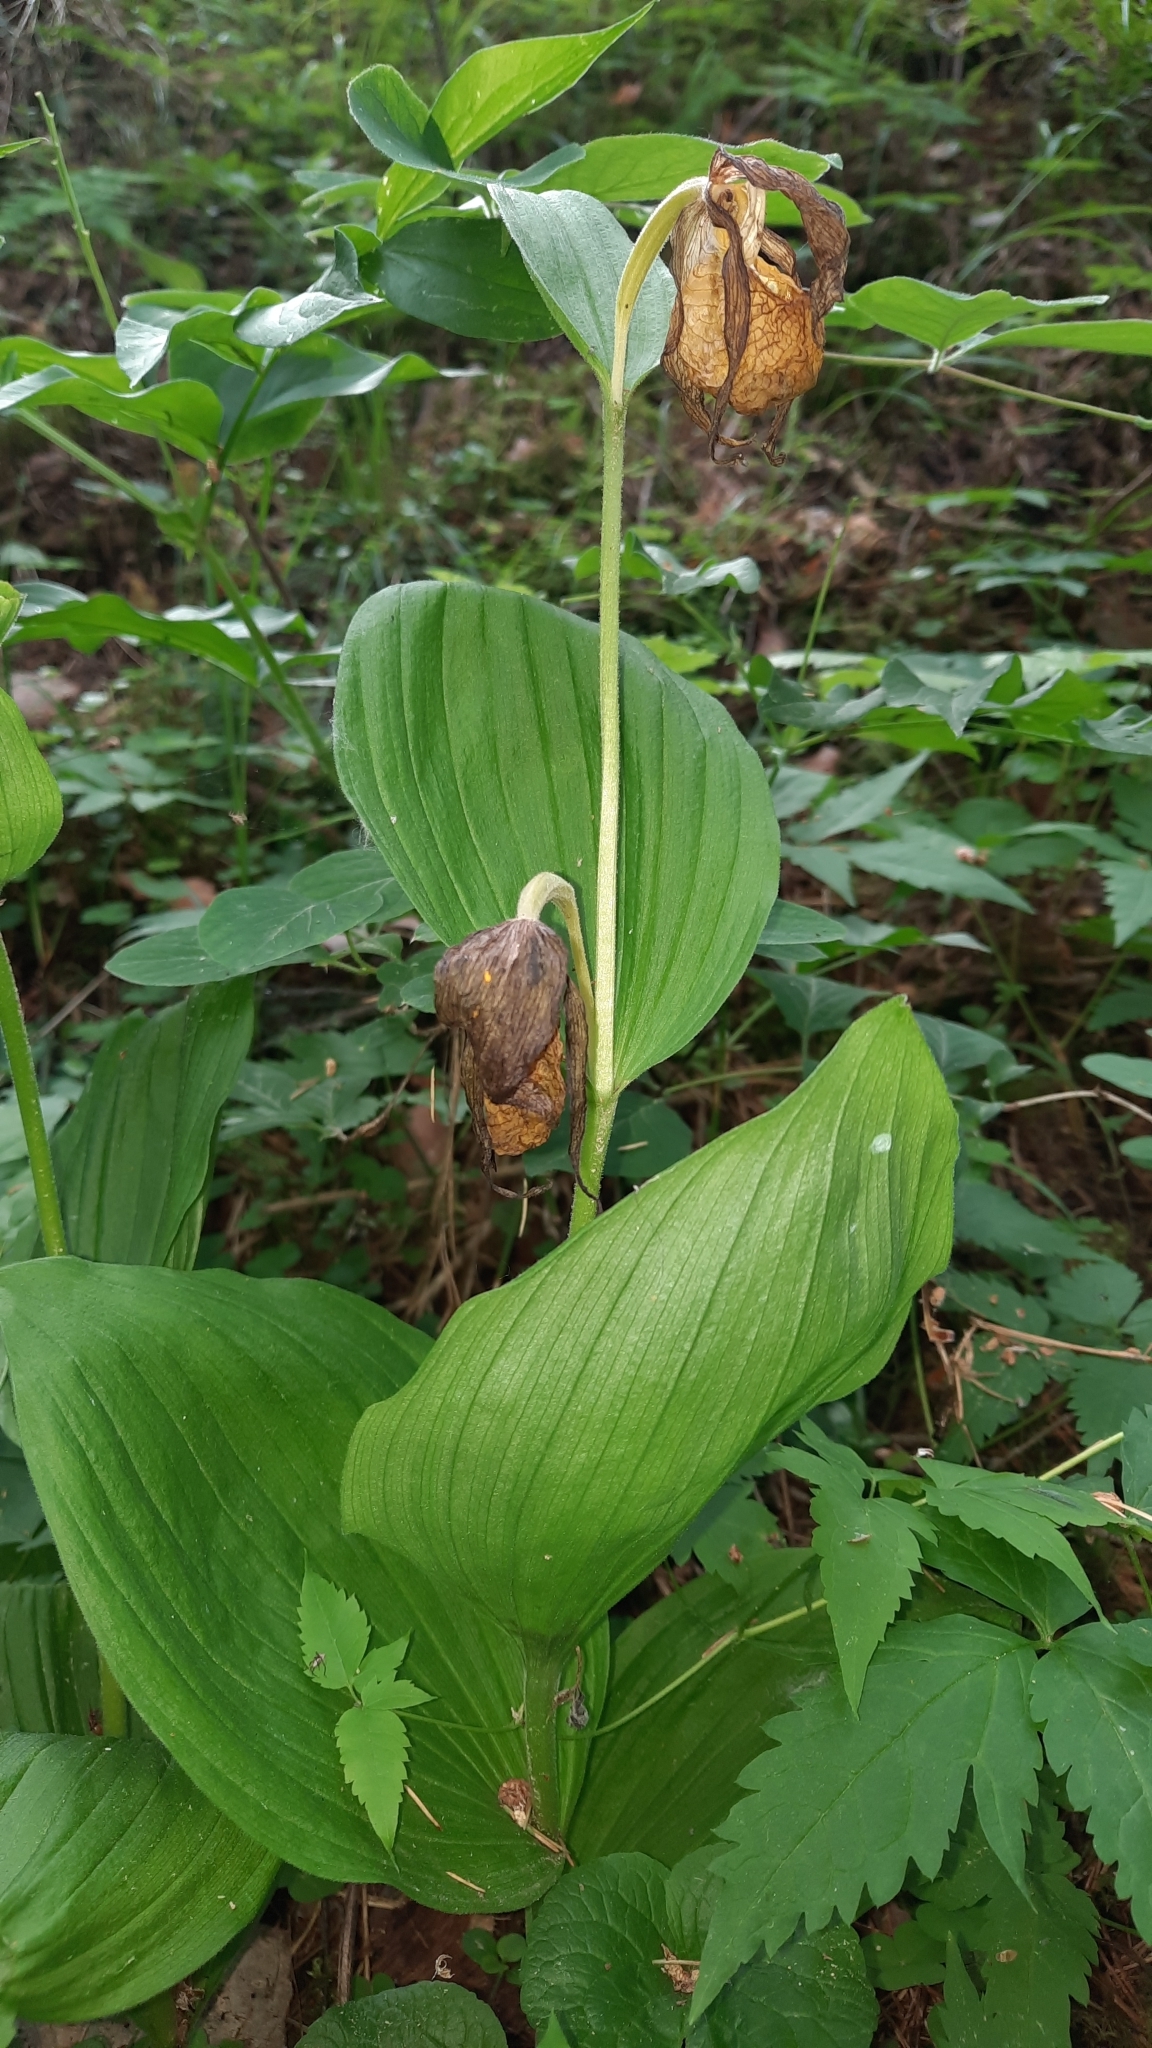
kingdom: Plantae
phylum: Tracheophyta
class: Liliopsida
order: Asparagales
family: Orchidaceae
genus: Cypripedium
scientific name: Cypripedium calceolus
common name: Lady's-slipper
